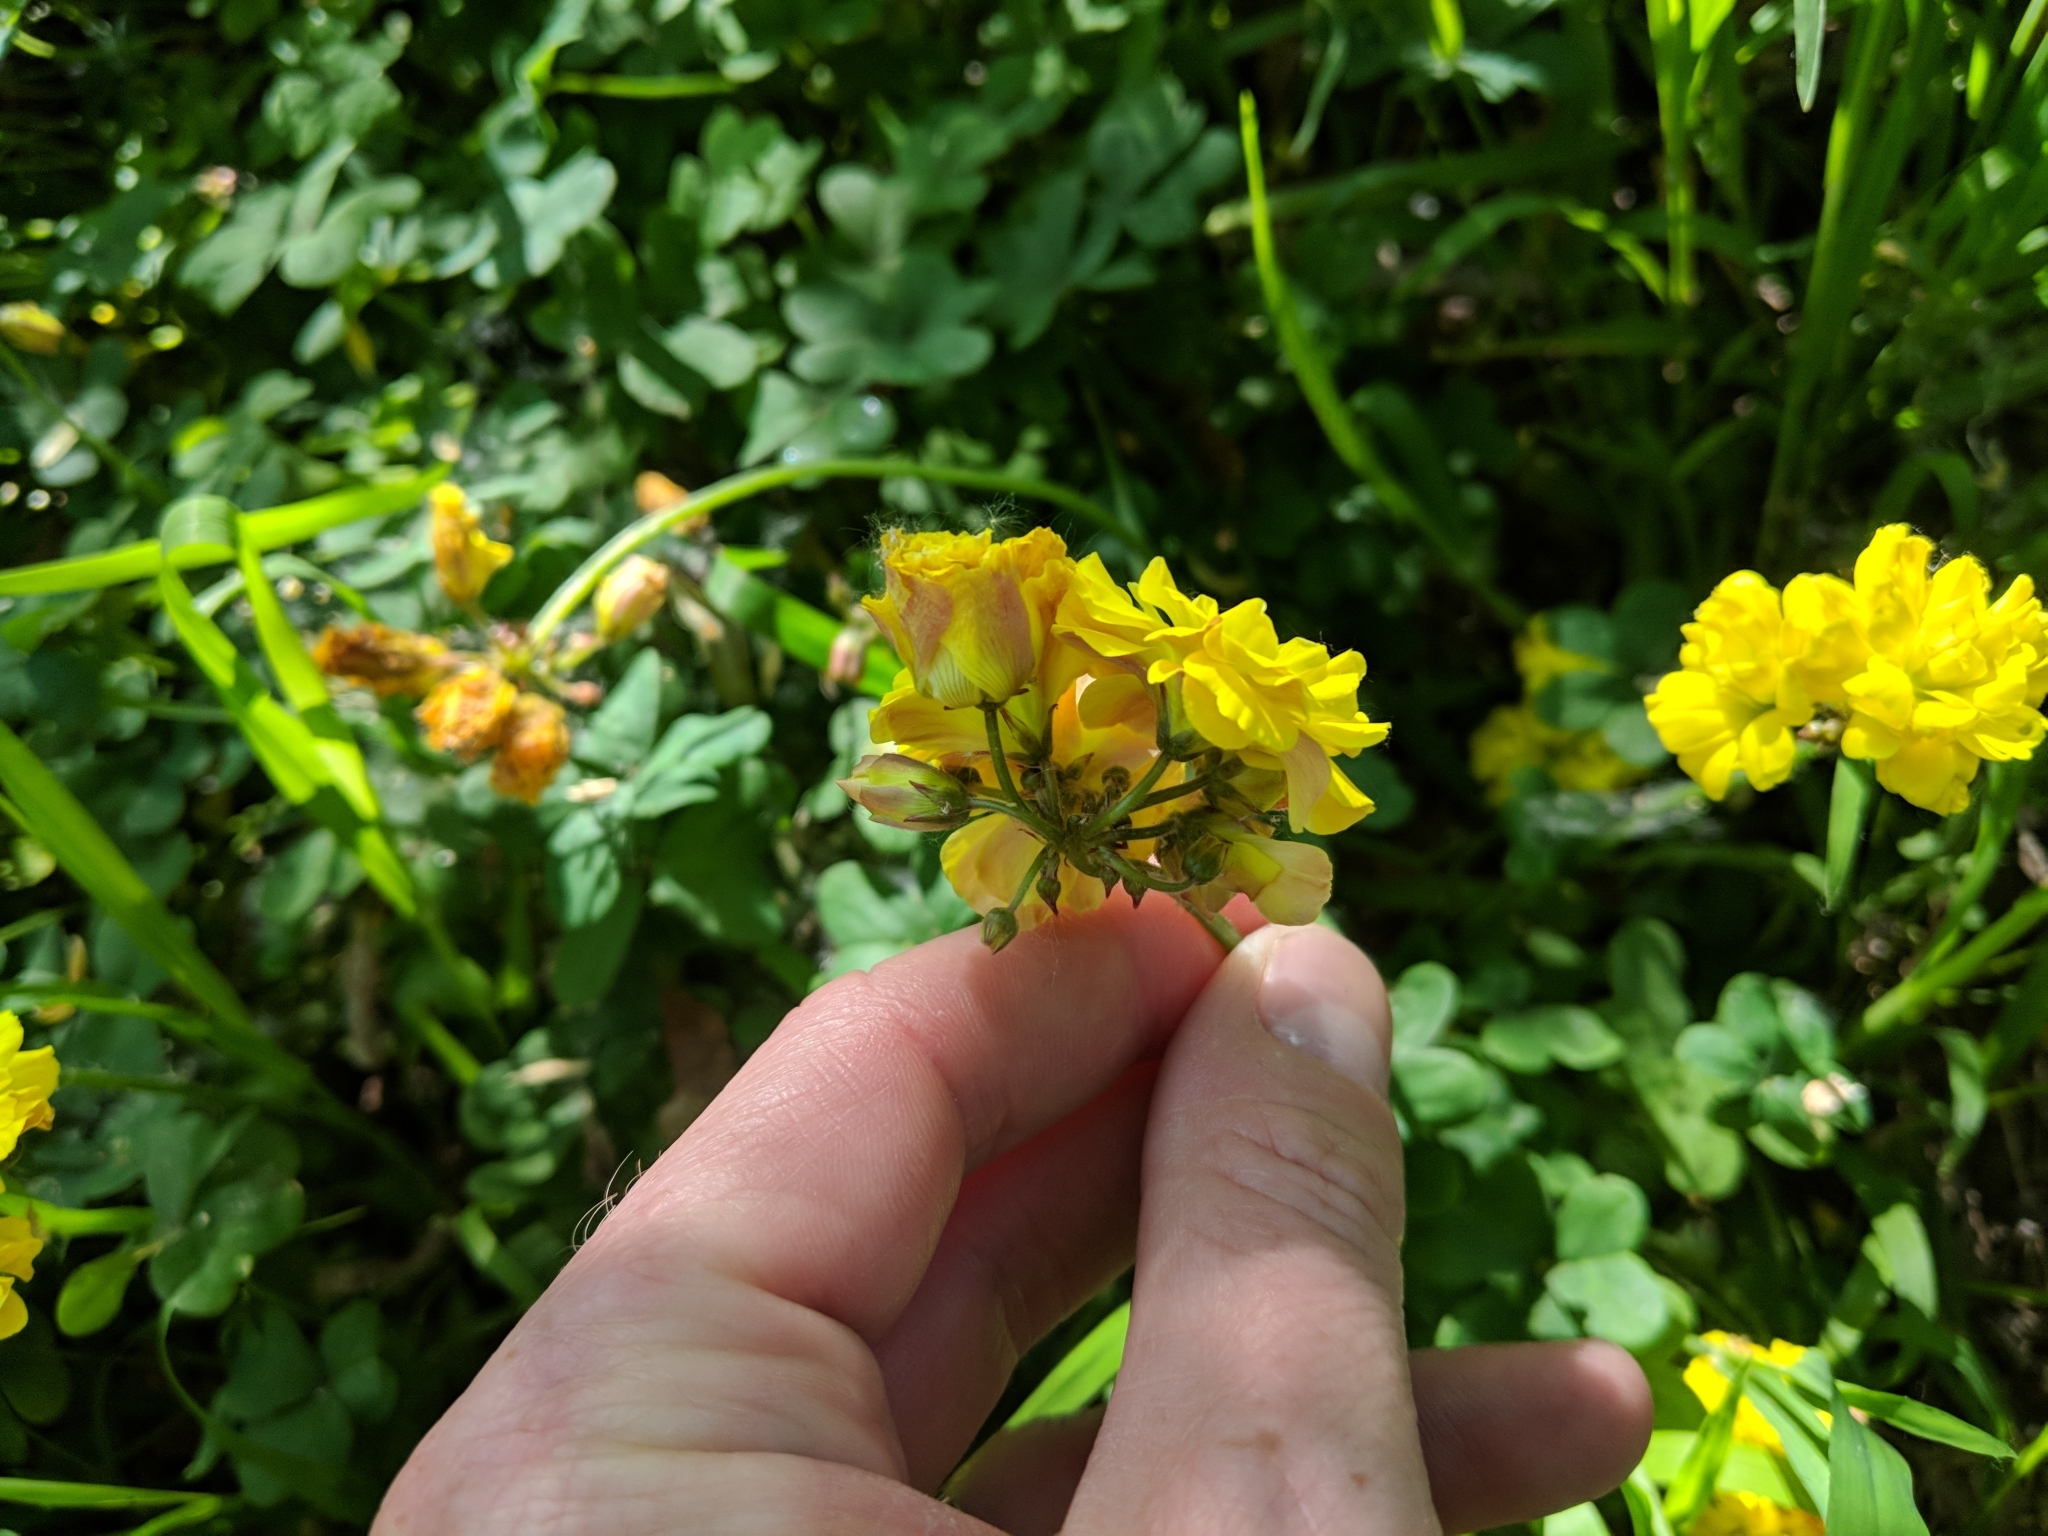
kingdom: Plantae
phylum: Tracheophyta
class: Magnoliopsida
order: Oxalidales
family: Oxalidaceae
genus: Oxalis
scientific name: Oxalis pes-caprae
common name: Bermuda-buttercup
